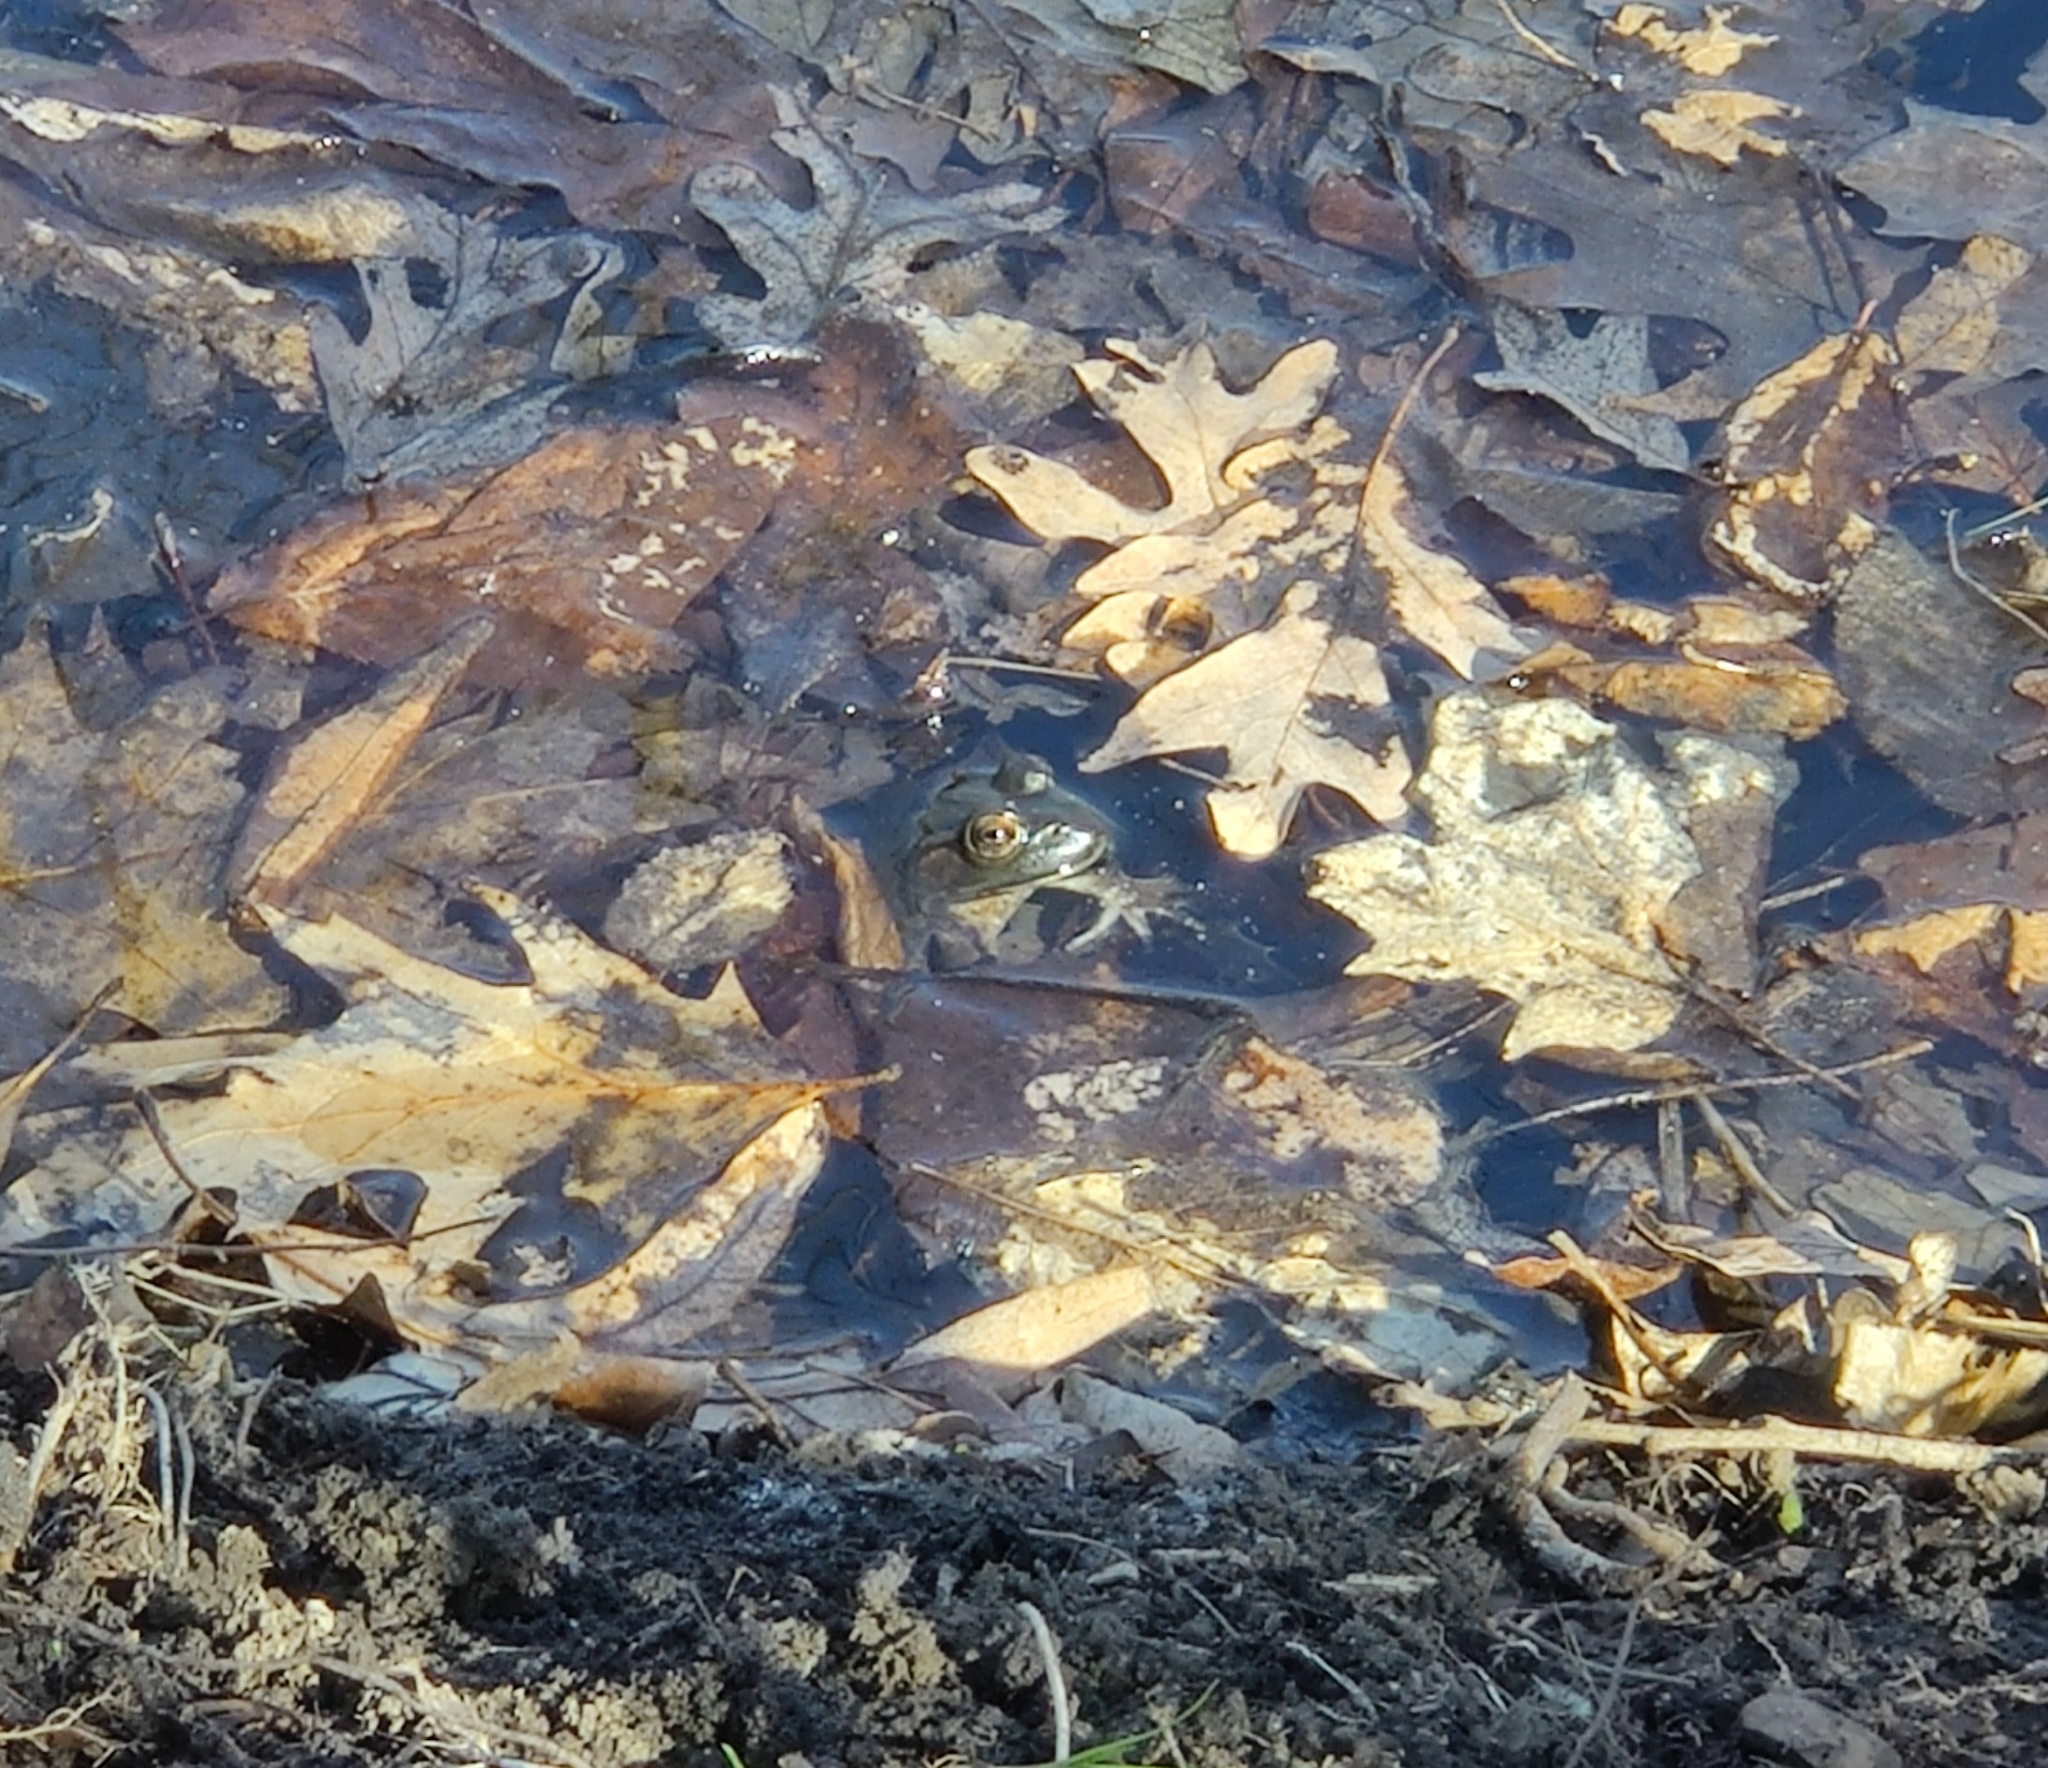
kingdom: Animalia
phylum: Chordata
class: Amphibia
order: Anura
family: Ranidae
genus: Lithobates
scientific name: Lithobates catesbeianus
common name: American bullfrog
